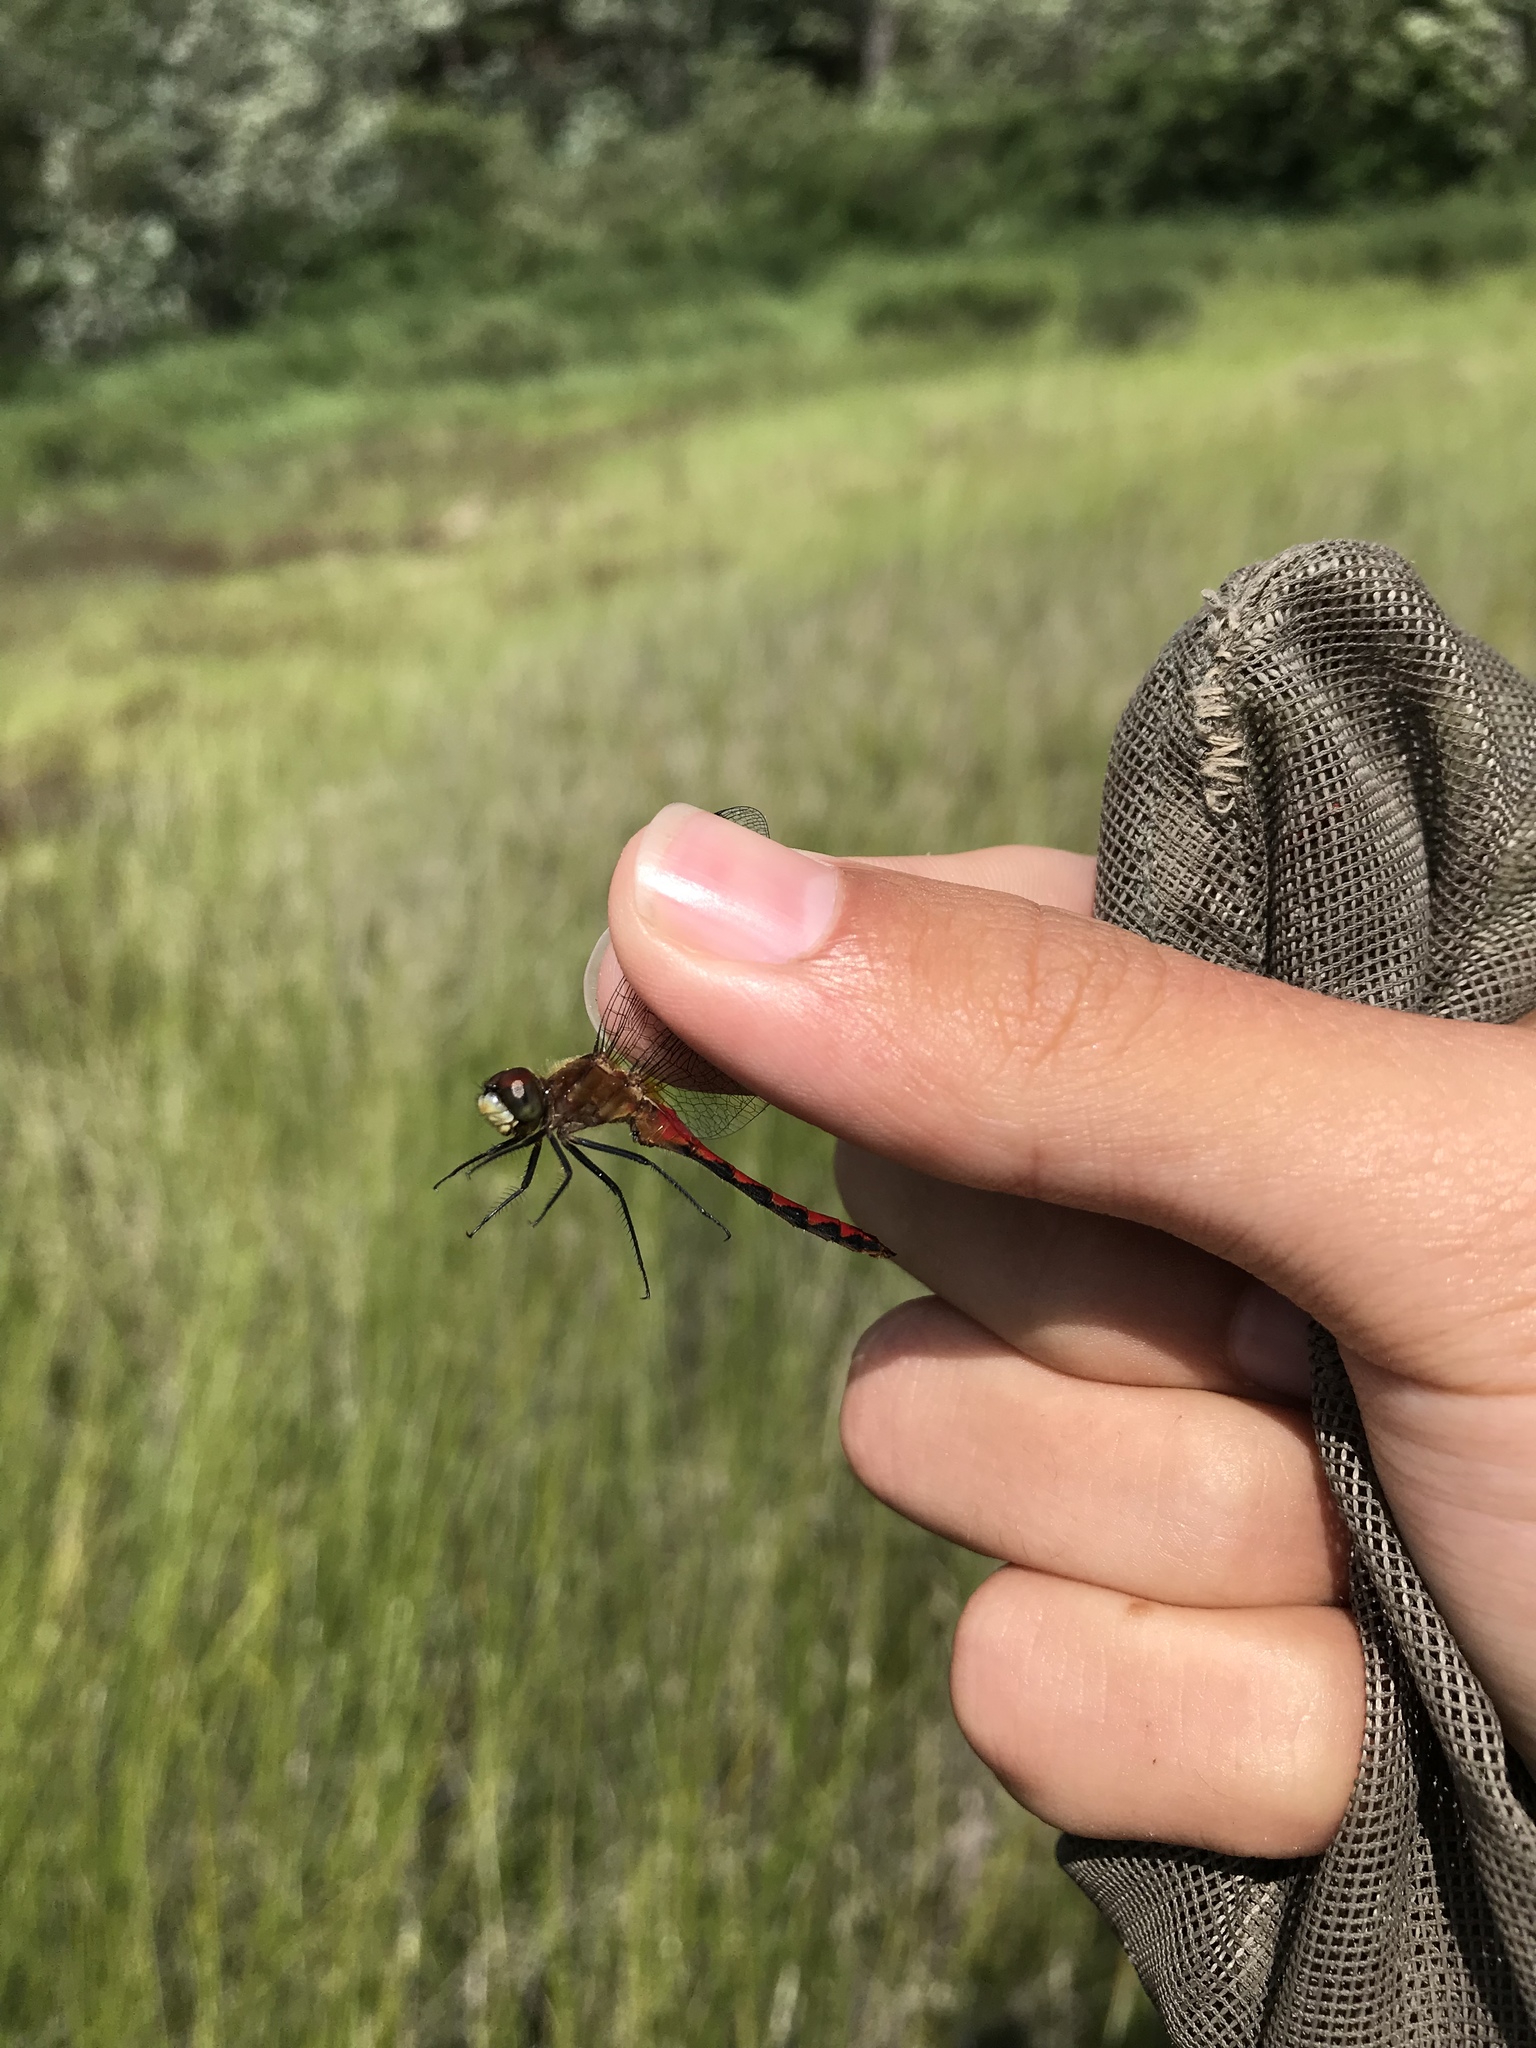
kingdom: Animalia
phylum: Arthropoda
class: Insecta
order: Odonata
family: Libellulidae
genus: Sympetrum
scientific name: Sympetrum obtrusum
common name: White-faced meadowhawk
